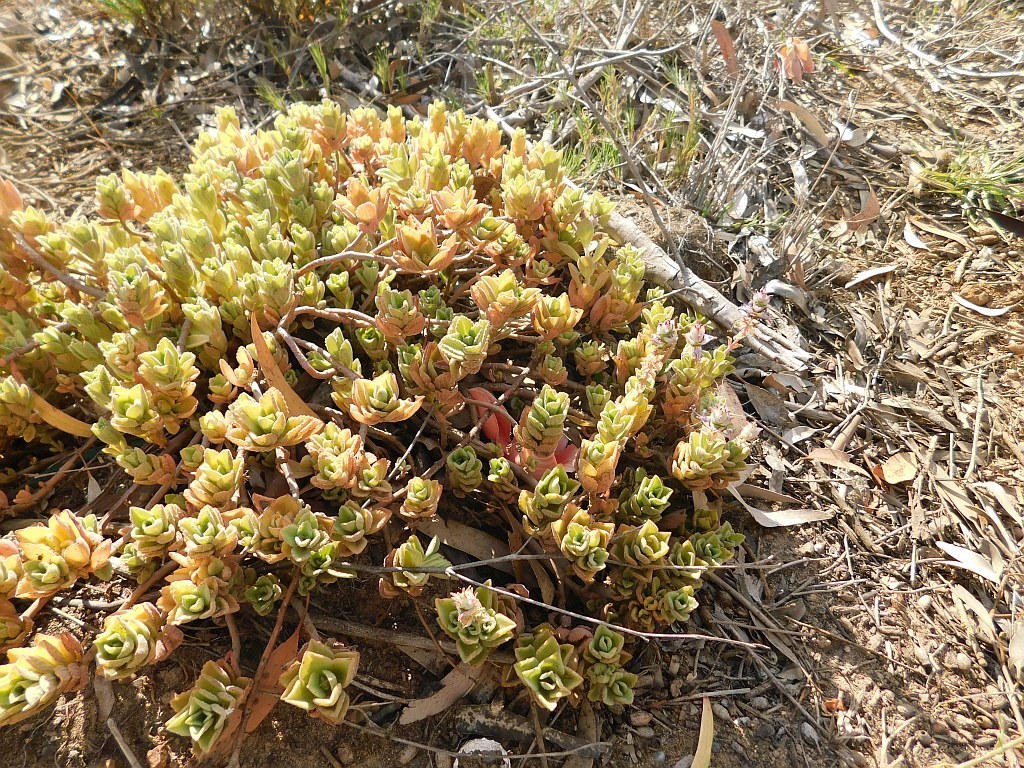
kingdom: Plantae
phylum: Tracheophyta
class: Magnoliopsida
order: Lamiales
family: Lamiaceae
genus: Coleus
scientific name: Coleus neochilus
